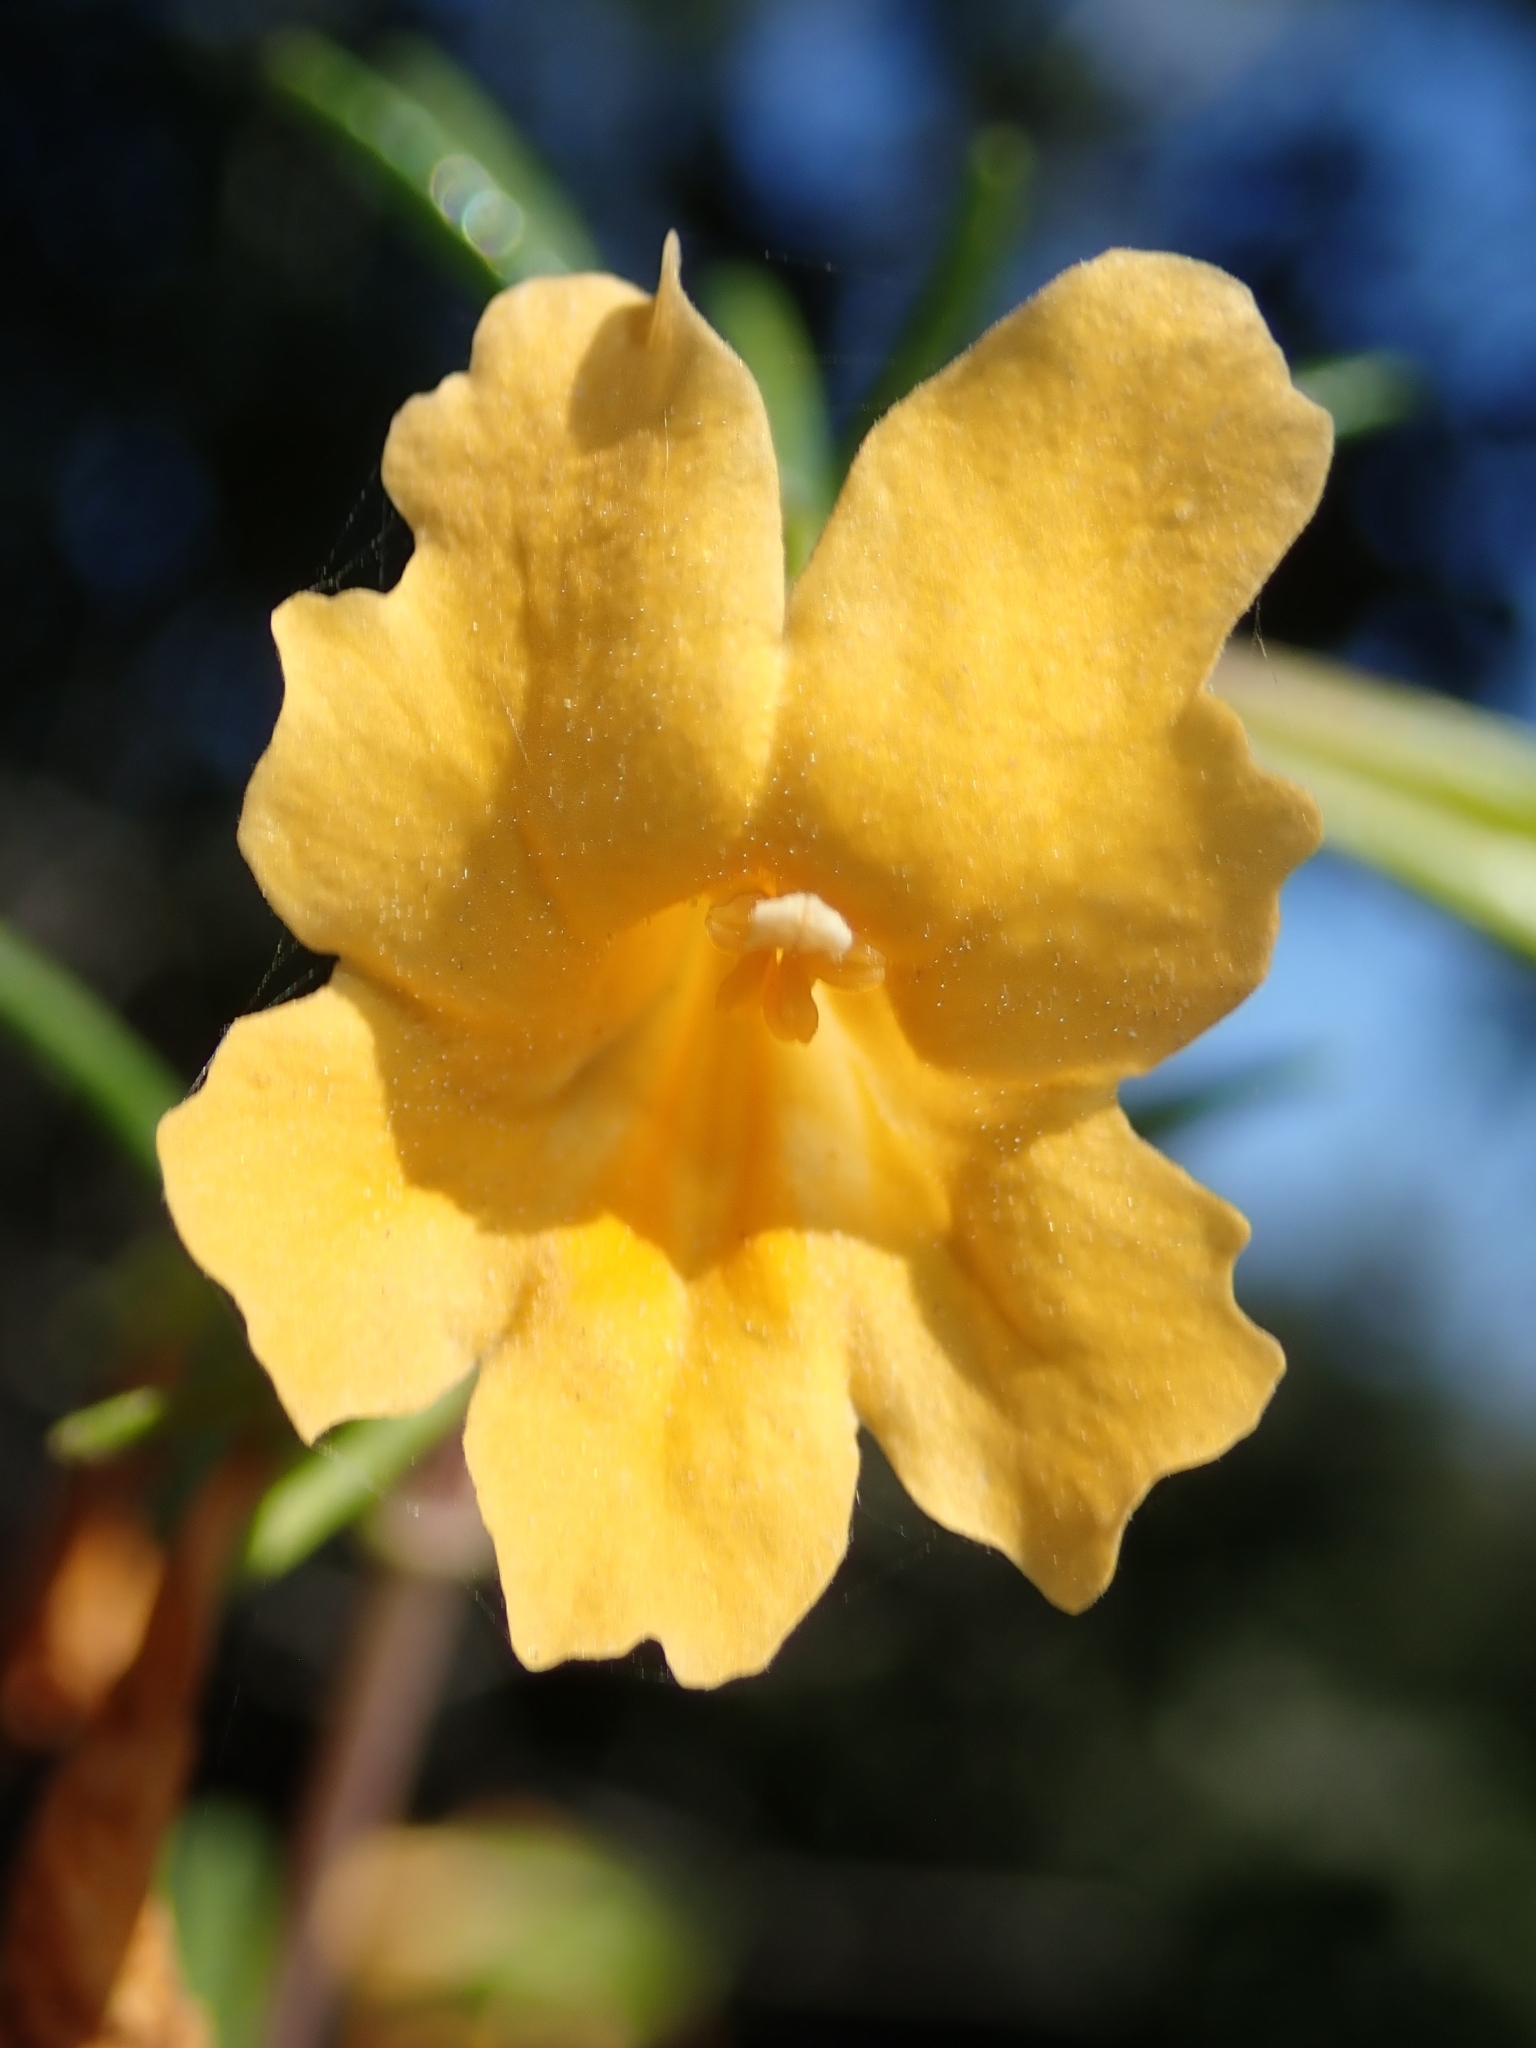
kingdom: Plantae
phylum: Tracheophyta
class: Magnoliopsida
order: Lamiales
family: Phrymaceae
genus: Diplacus
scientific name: Diplacus aurantiacus
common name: Bush monkey-flower
